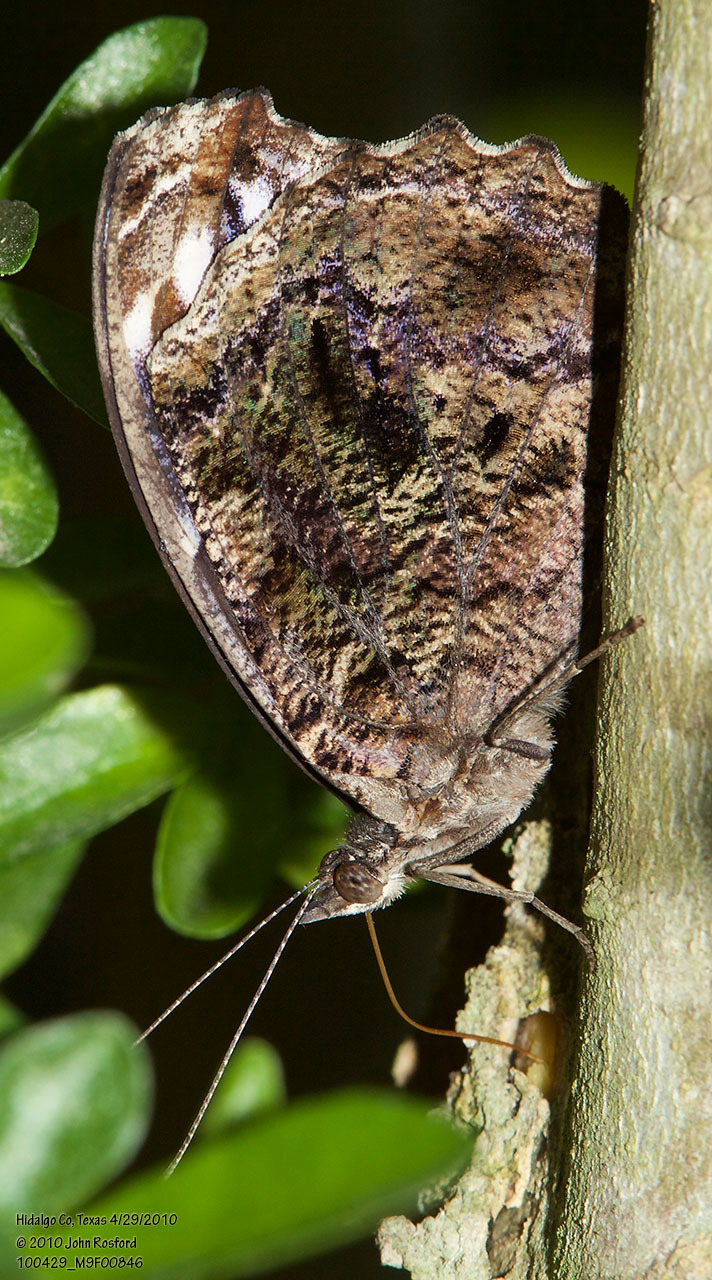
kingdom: Animalia
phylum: Arthropoda
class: Insecta
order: Lepidoptera
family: Nymphalidae
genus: Myscelia
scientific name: Myscelia ethusa
